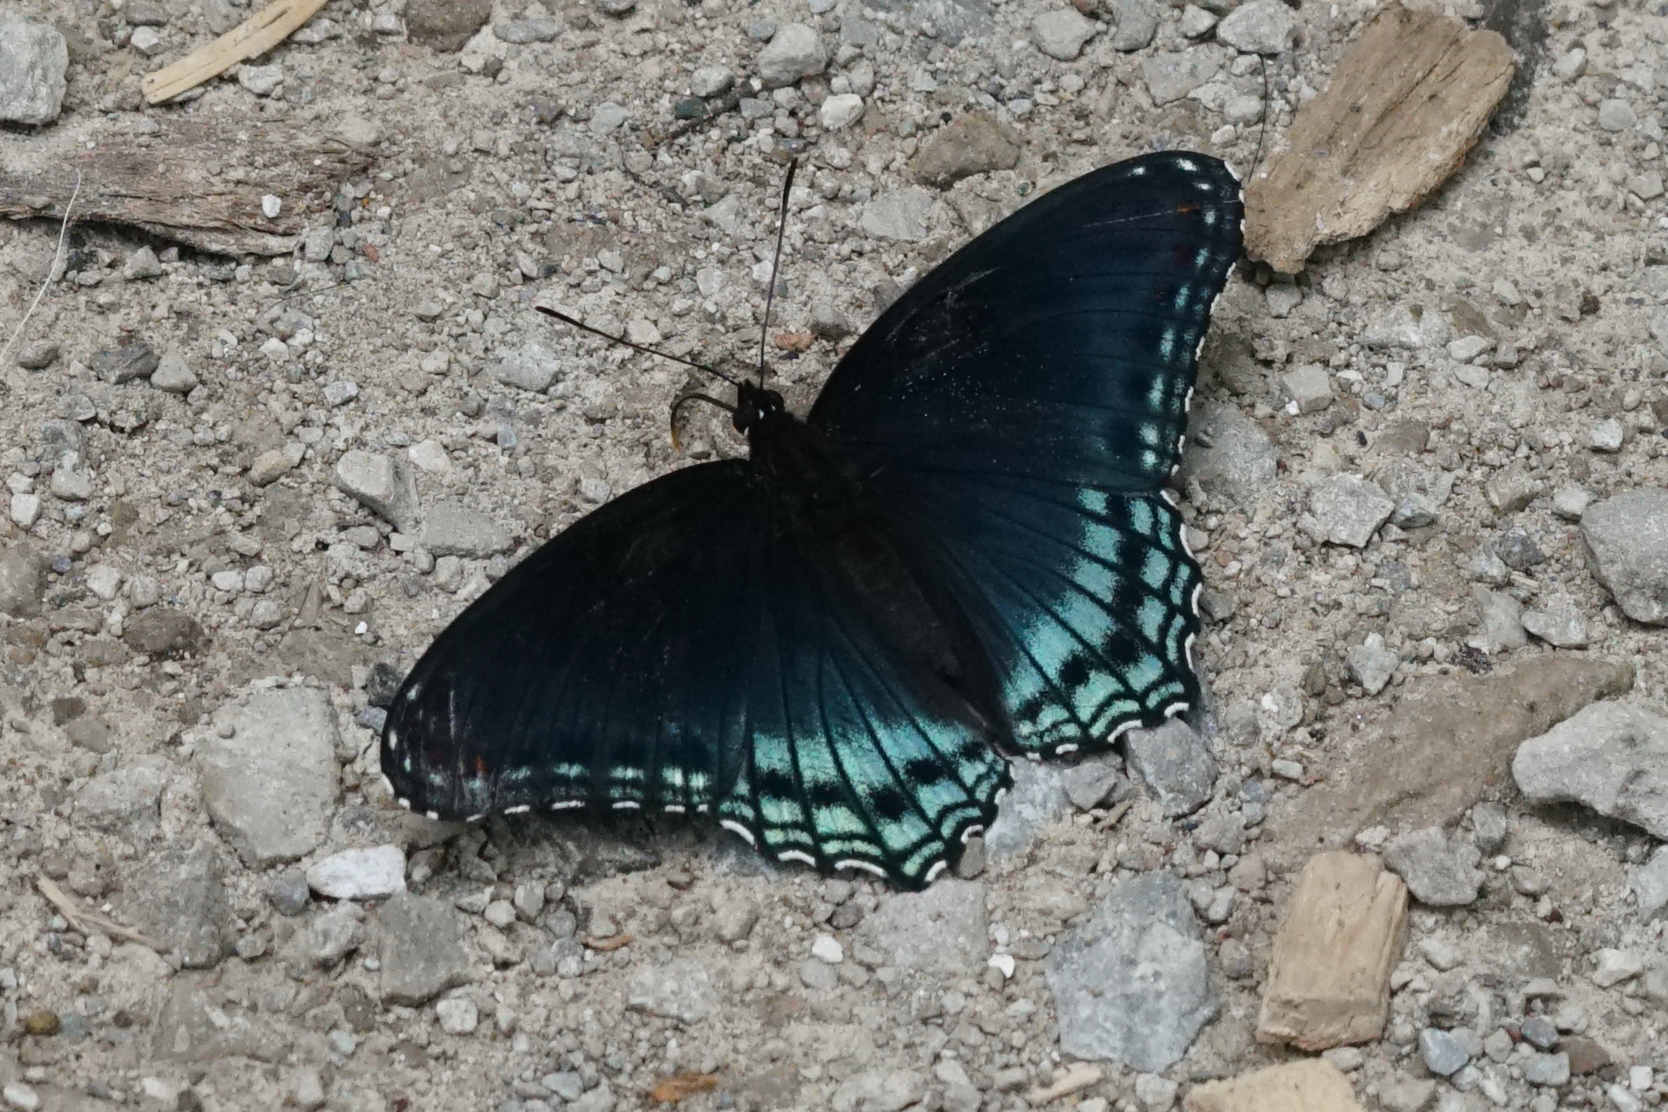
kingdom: Animalia
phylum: Arthropoda
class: Insecta
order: Lepidoptera
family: Nymphalidae
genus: Limenitis
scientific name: Limenitis arthemis
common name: Red-spotted admiral
